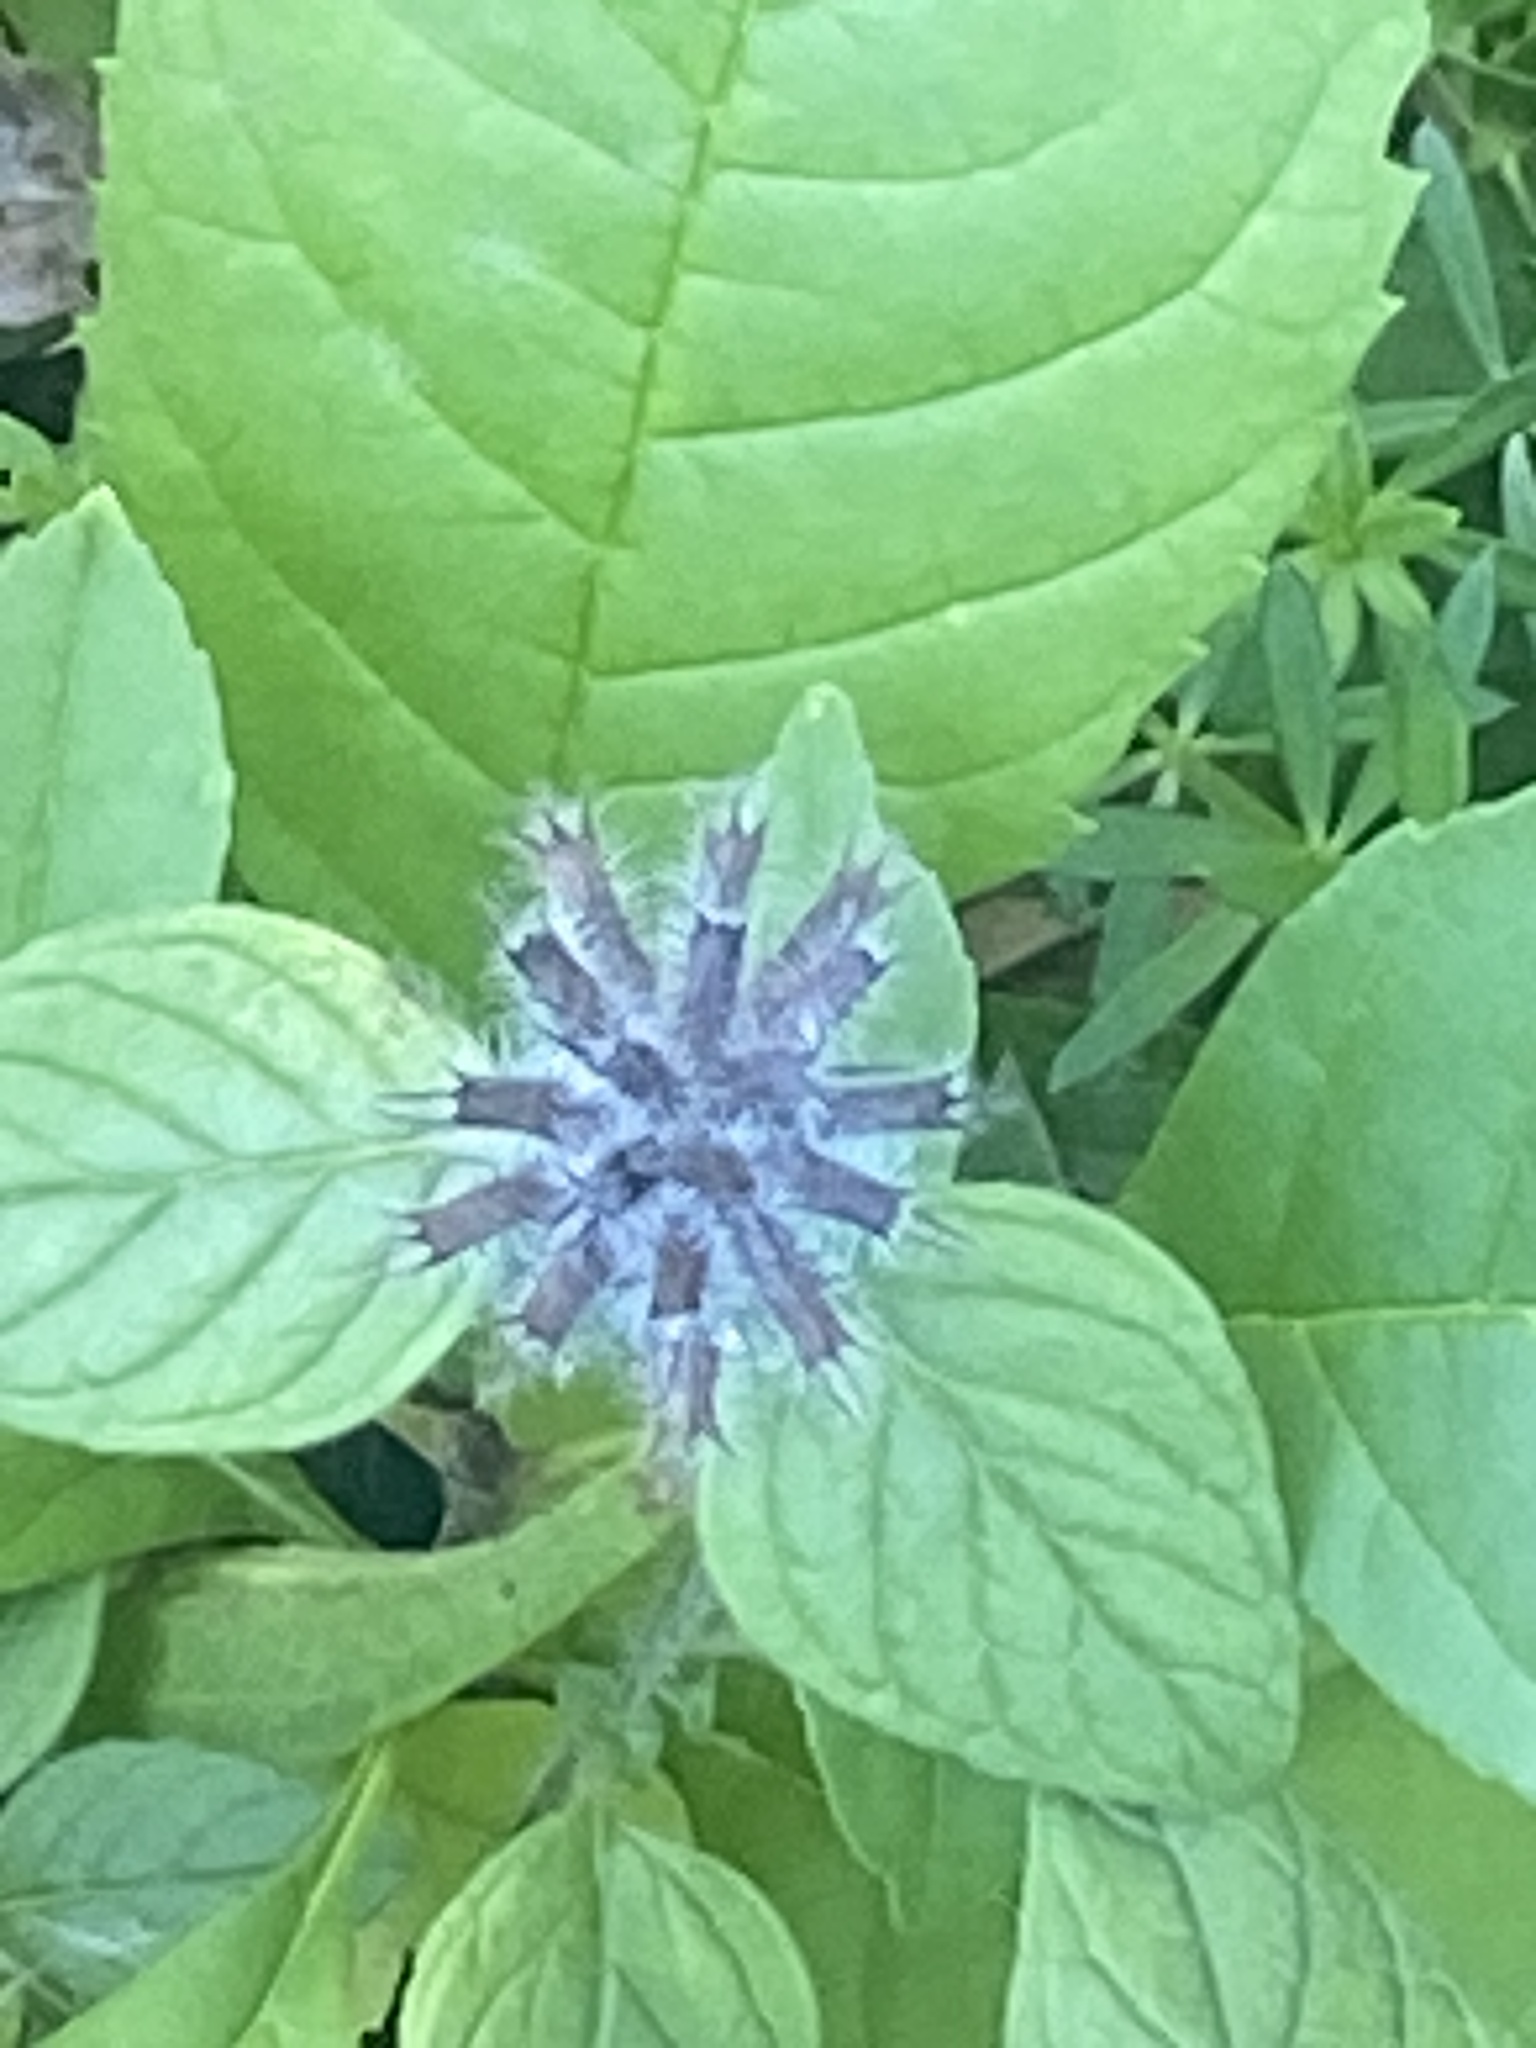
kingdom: Plantae
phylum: Tracheophyta
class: Magnoliopsida
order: Lamiales
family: Lamiaceae
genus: Clinopodium
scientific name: Clinopodium vulgare
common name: Wild basil
